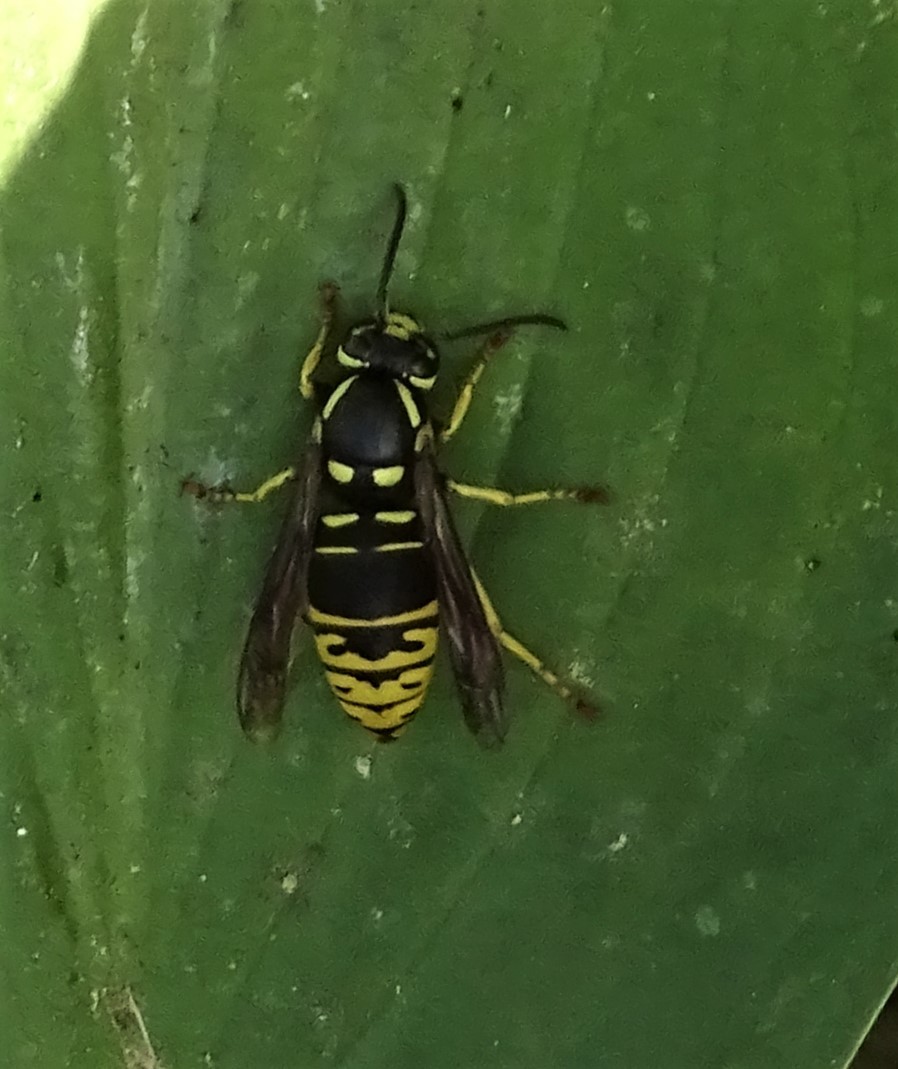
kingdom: Animalia
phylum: Arthropoda
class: Insecta
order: Hymenoptera
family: Vespidae
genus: Vespula
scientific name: Vespula vidua
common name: Widow yellowjacket
